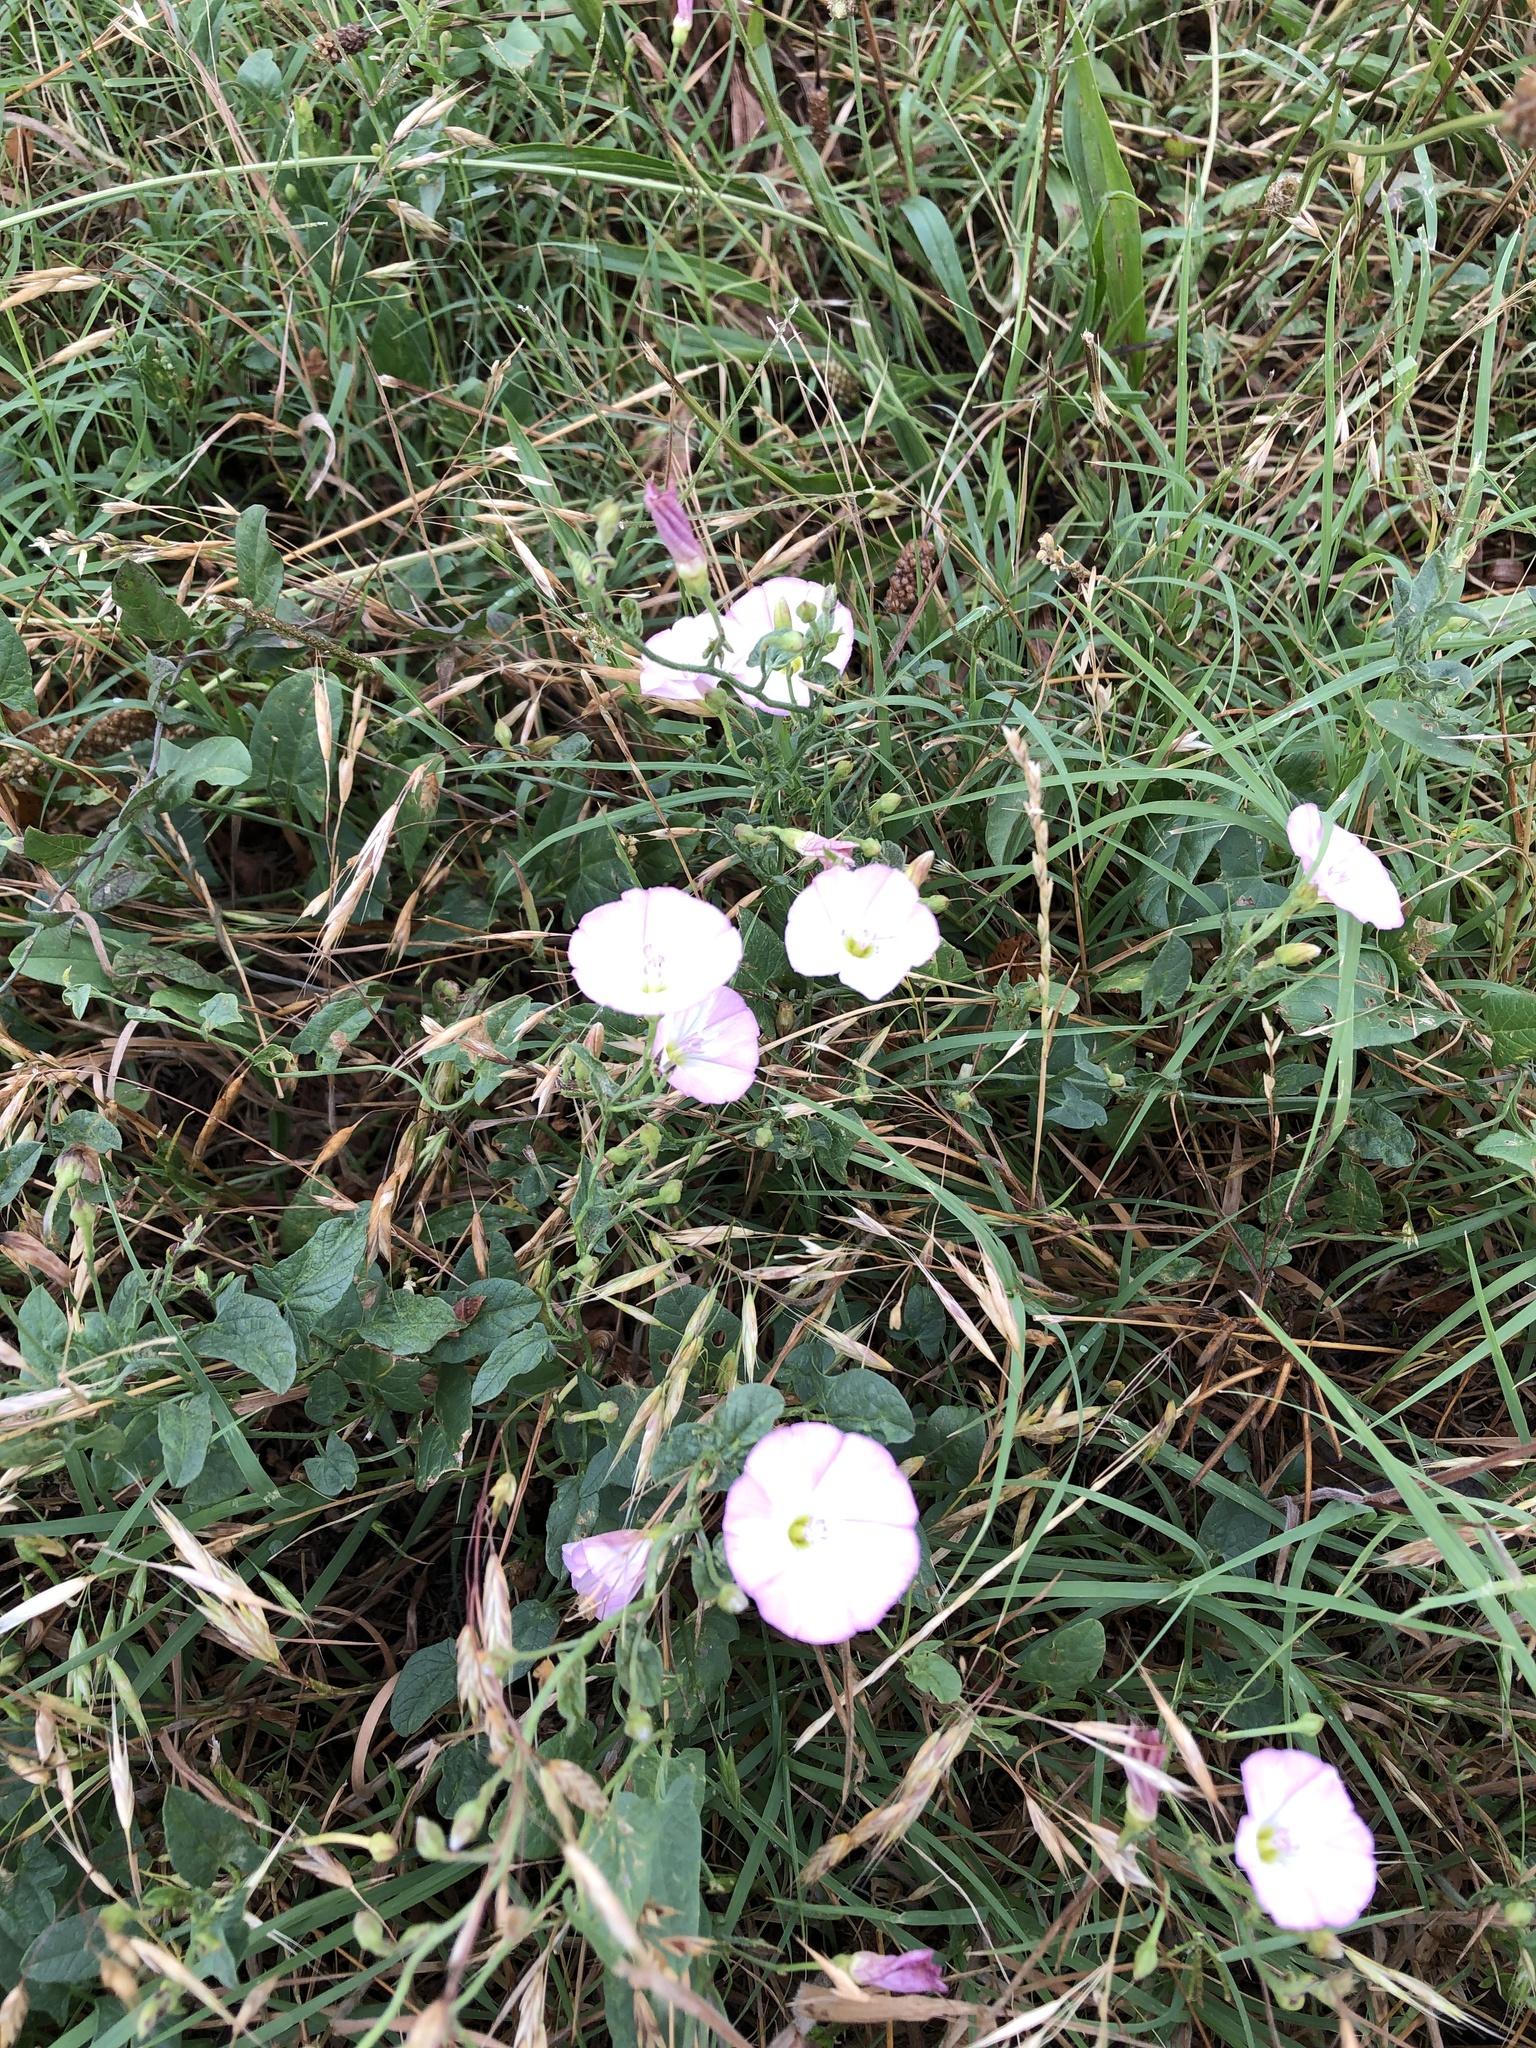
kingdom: Plantae
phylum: Tracheophyta
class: Magnoliopsida
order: Solanales
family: Convolvulaceae
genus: Convolvulus
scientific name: Convolvulus arvensis
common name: Field bindweed
